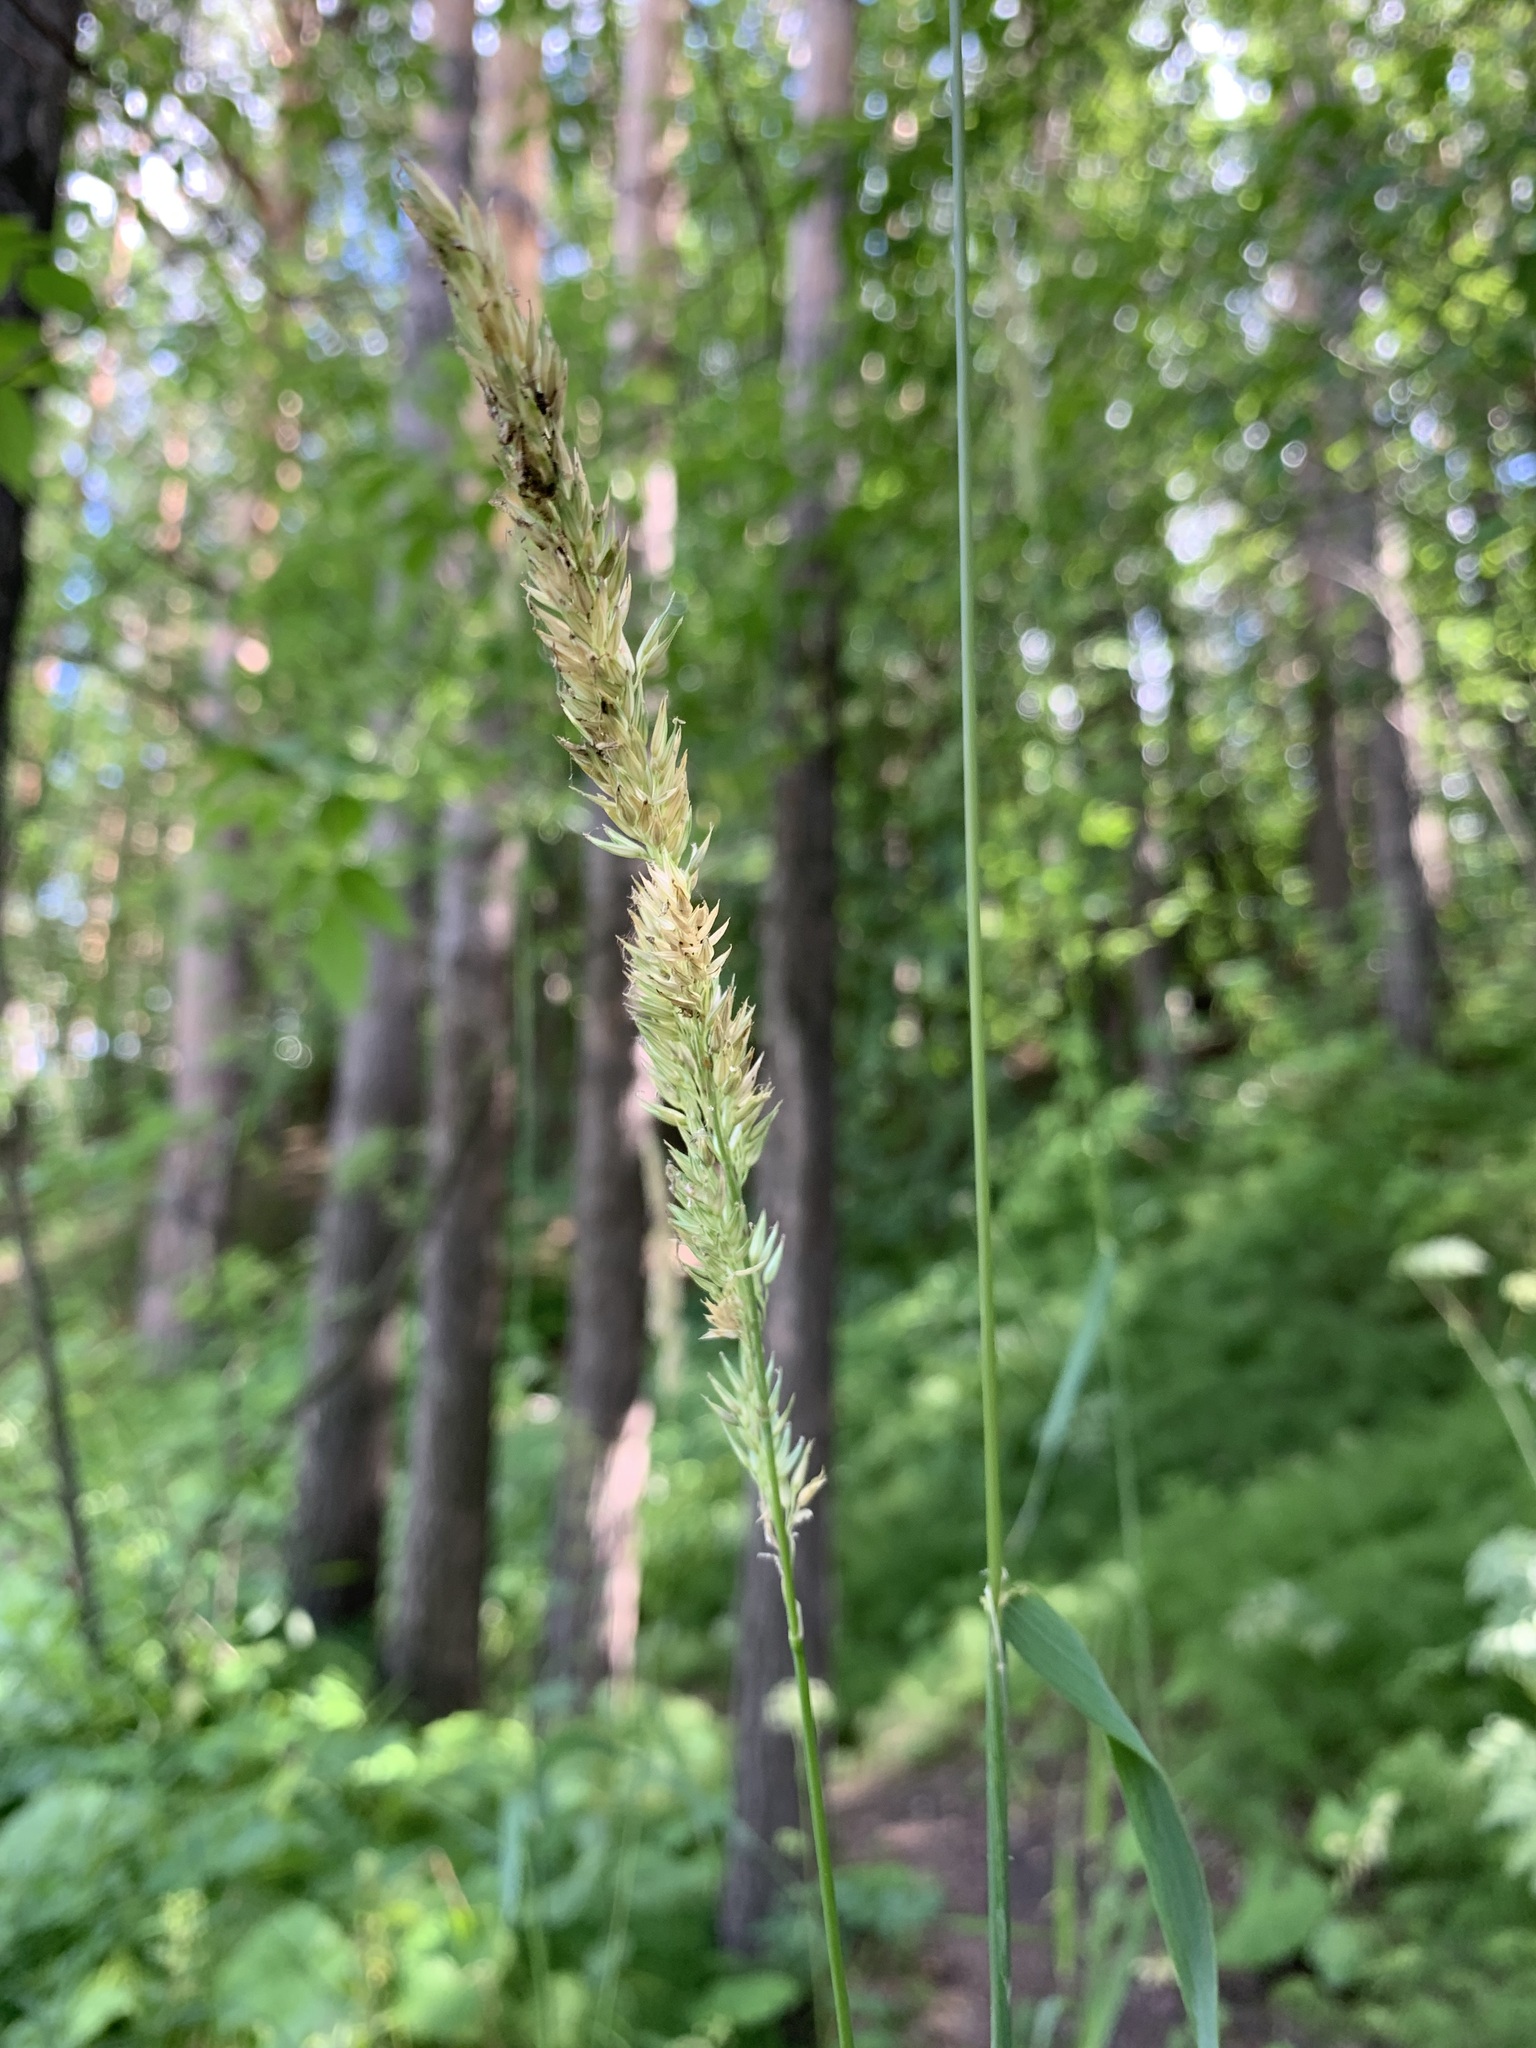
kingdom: Plantae
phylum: Tracheophyta
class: Liliopsida
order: Poales
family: Poaceae
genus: Phalaris
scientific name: Phalaris arundinacea
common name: Reed canary-grass
